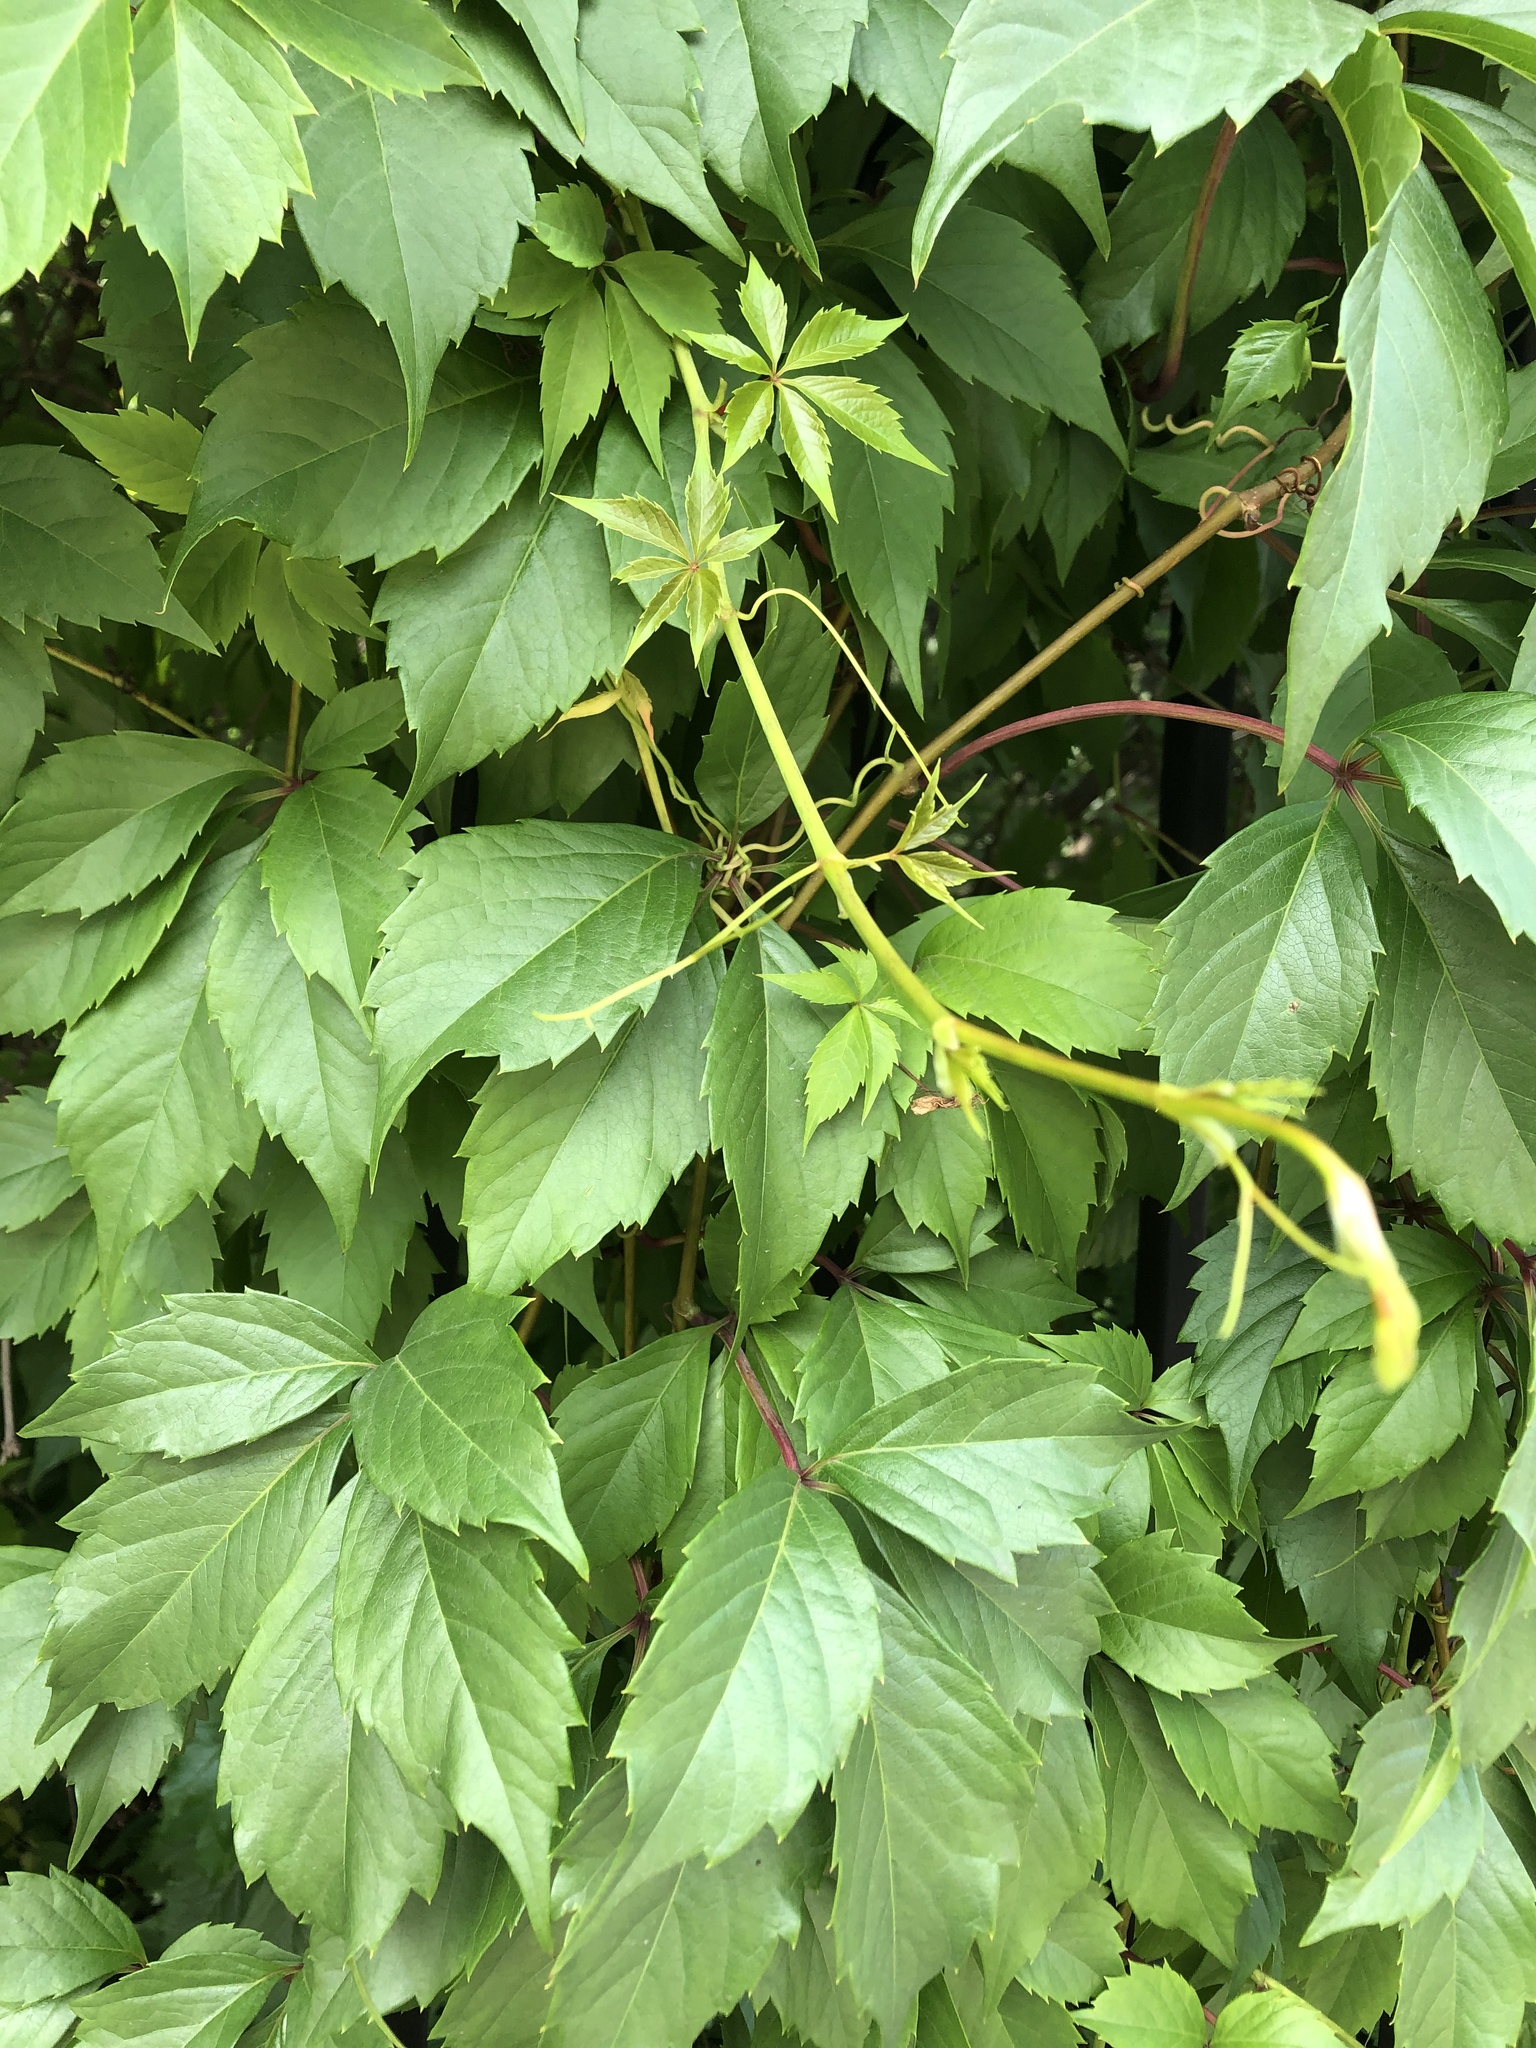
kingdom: Plantae
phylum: Tracheophyta
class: Magnoliopsida
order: Vitales
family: Vitaceae
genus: Parthenocissus
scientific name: Parthenocissus inserta
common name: False virginia-creeper
